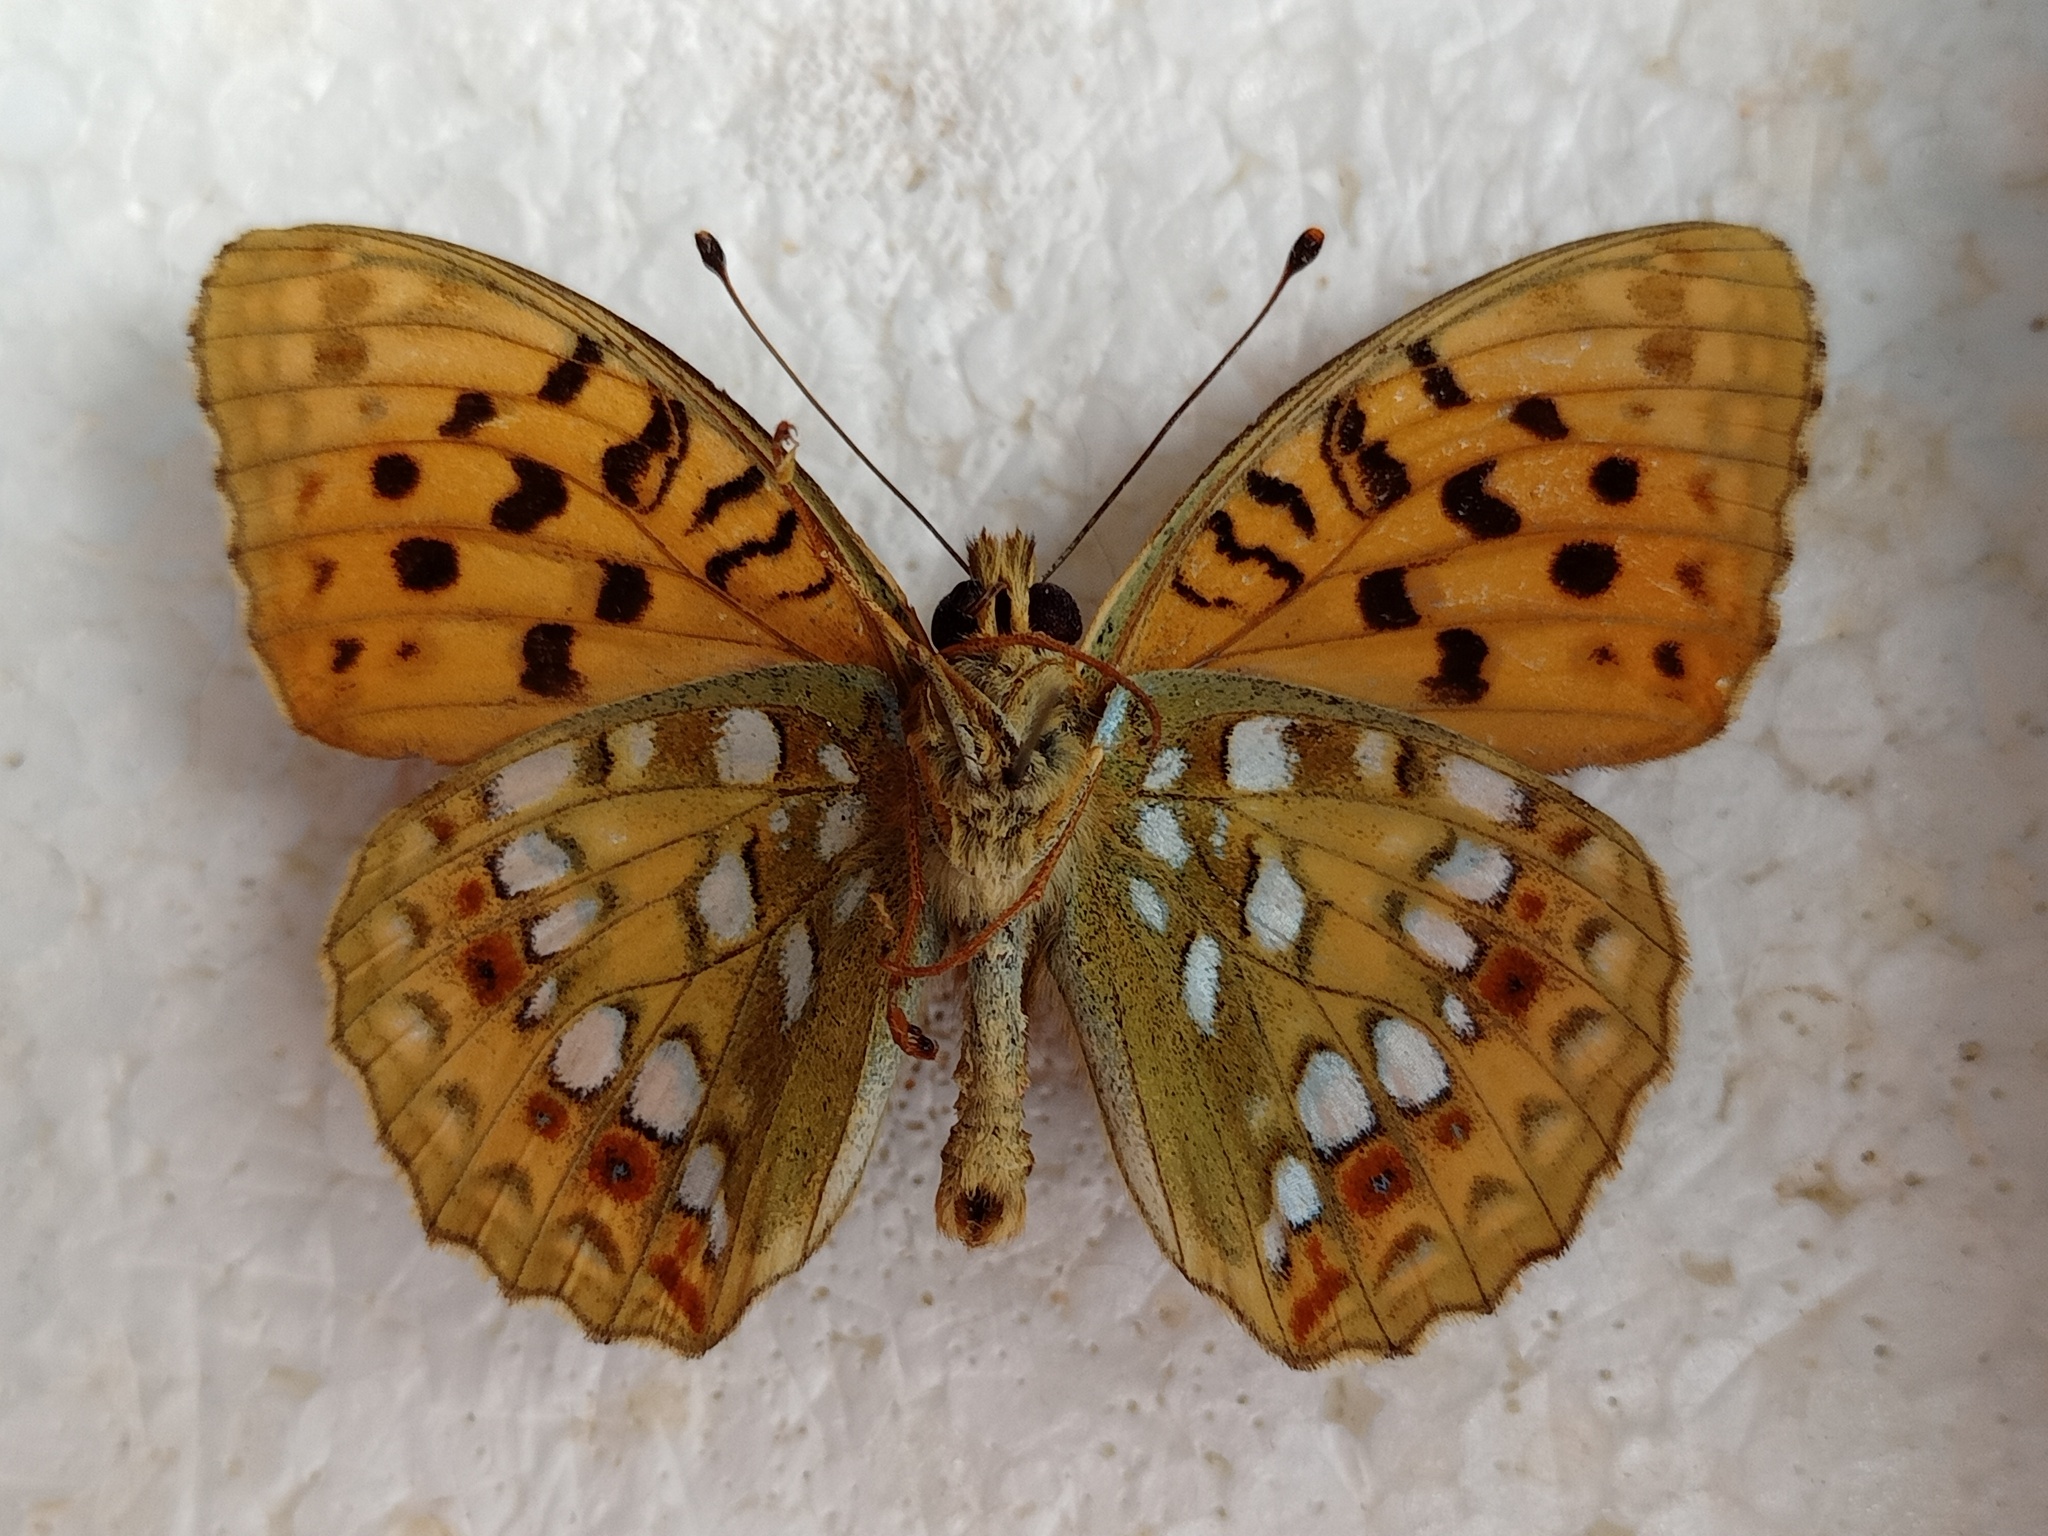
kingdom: Animalia
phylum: Arthropoda
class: Insecta
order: Lepidoptera
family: Nymphalidae
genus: Fabriciana
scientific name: Fabriciana adippe
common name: High brown fritillary
